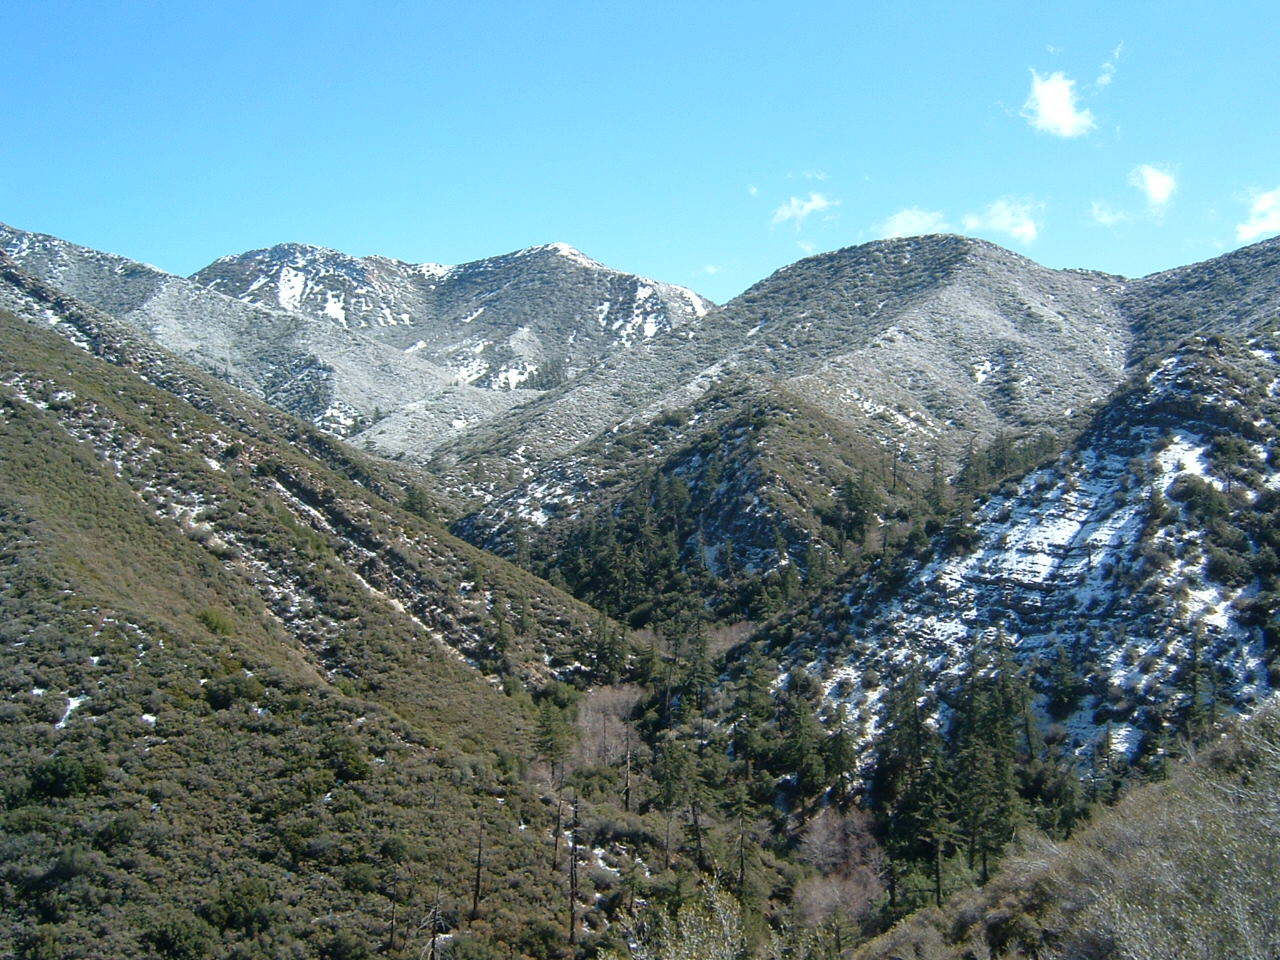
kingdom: Plantae
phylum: Tracheophyta
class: Pinopsida
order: Pinales
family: Pinaceae
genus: Pseudotsuga
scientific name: Pseudotsuga macrocarpa
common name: Big-cone douglas-fir
